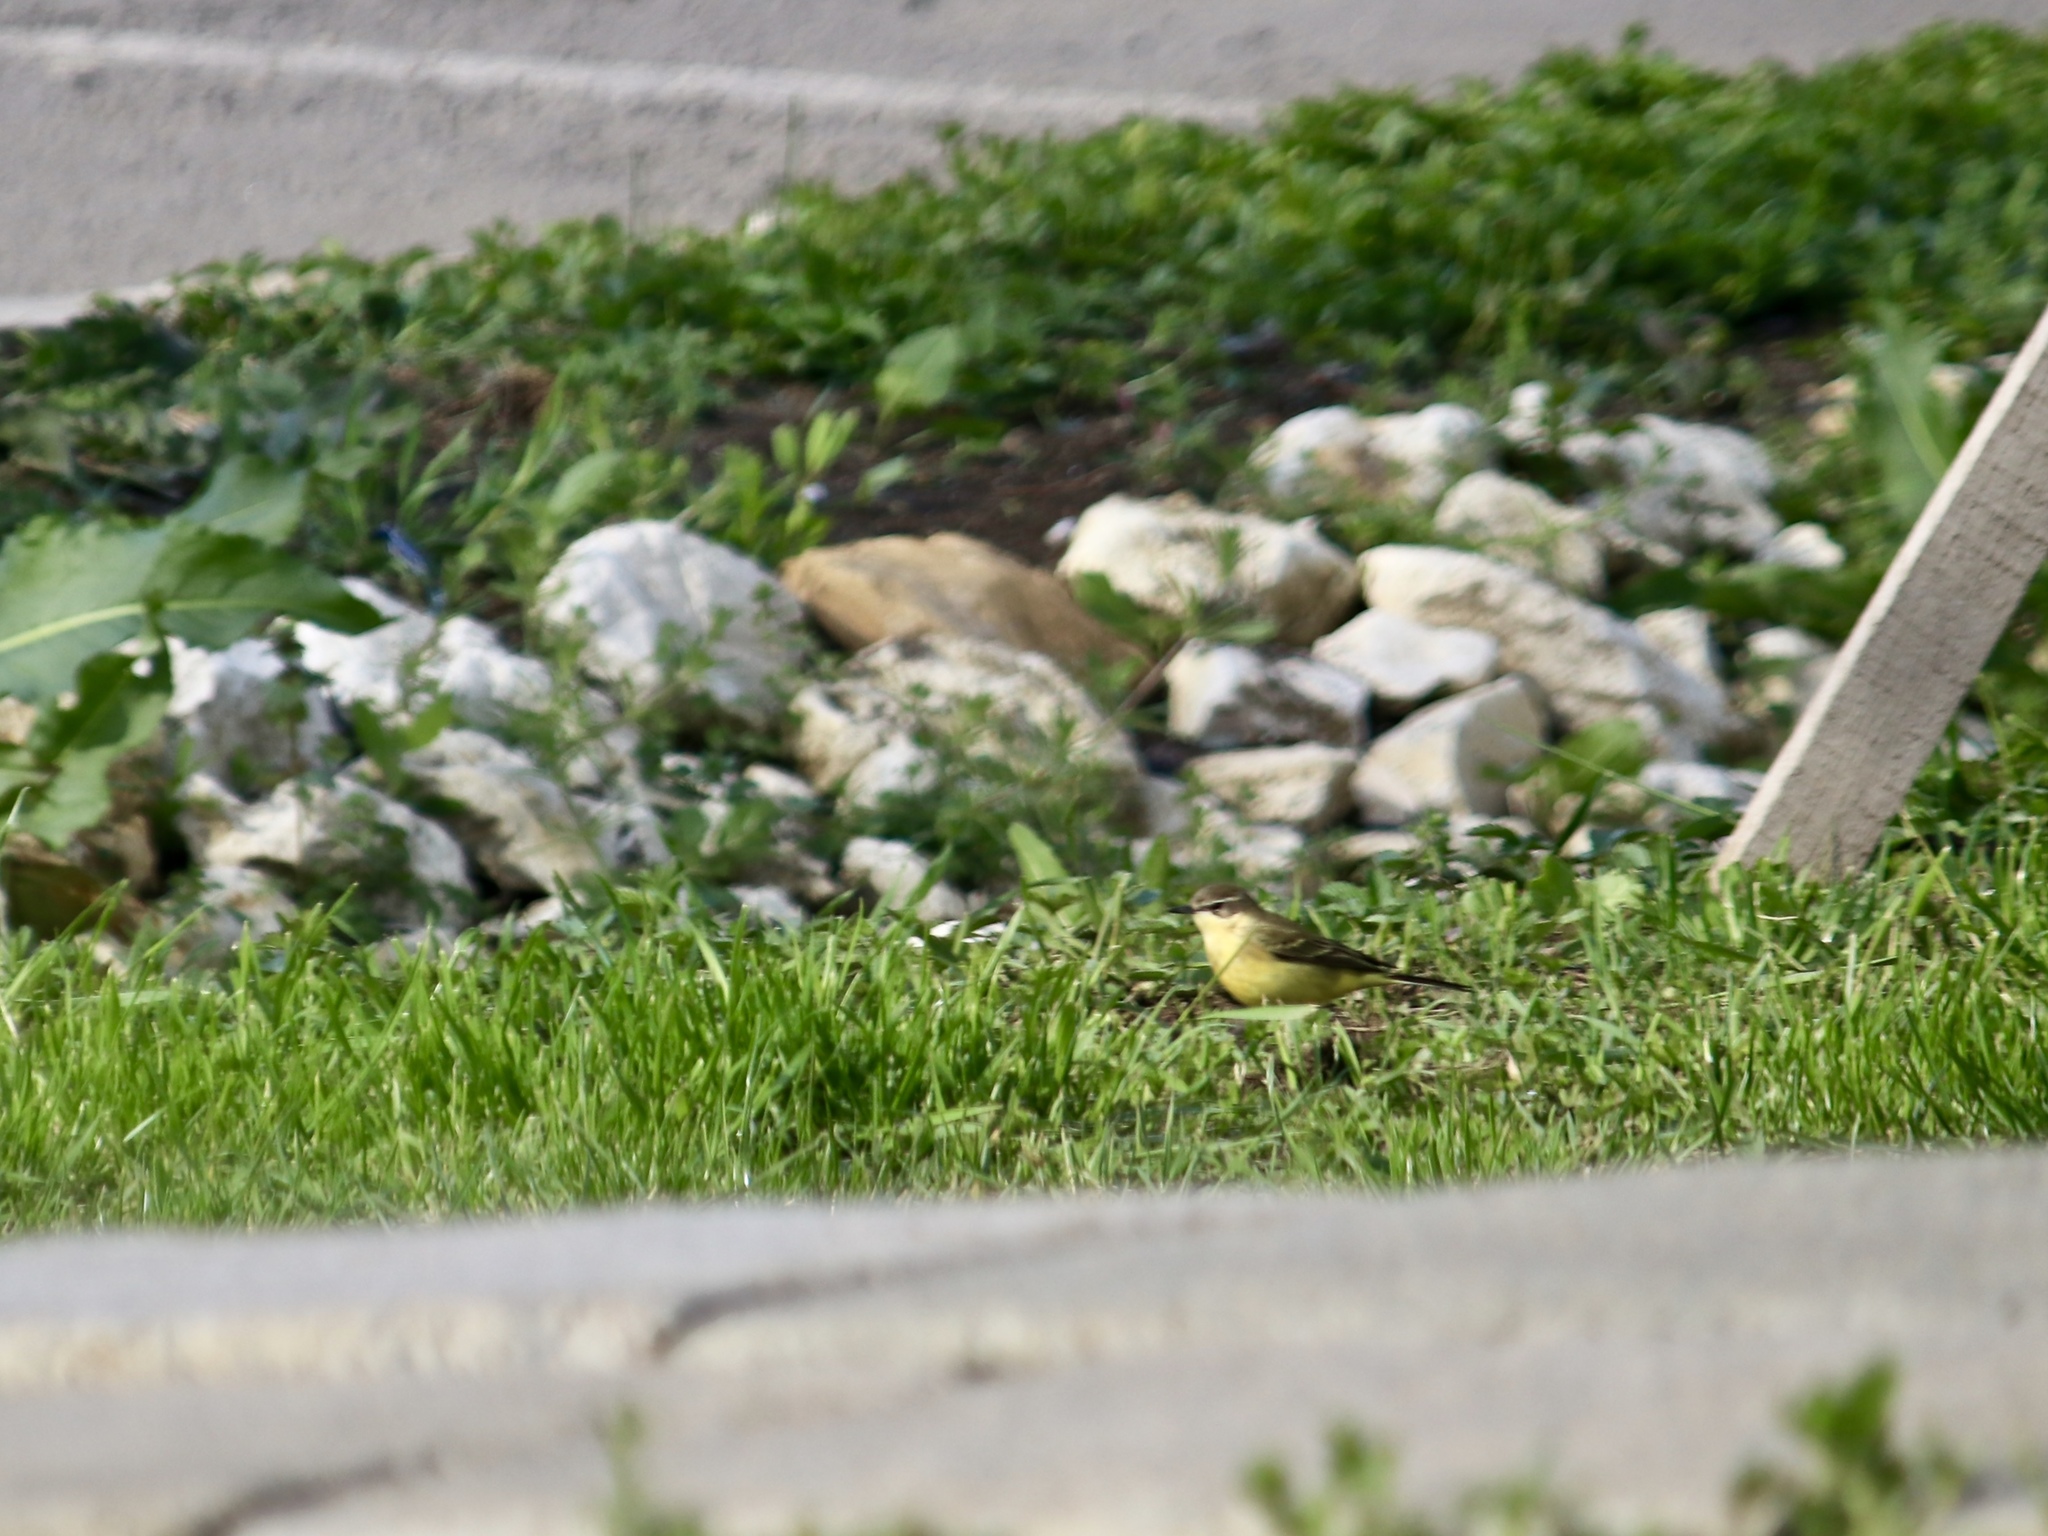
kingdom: Animalia
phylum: Chordata
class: Aves
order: Passeriformes
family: Motacillidae
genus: Motacilla
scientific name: Motacilla flava
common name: Western yellow wagtail
